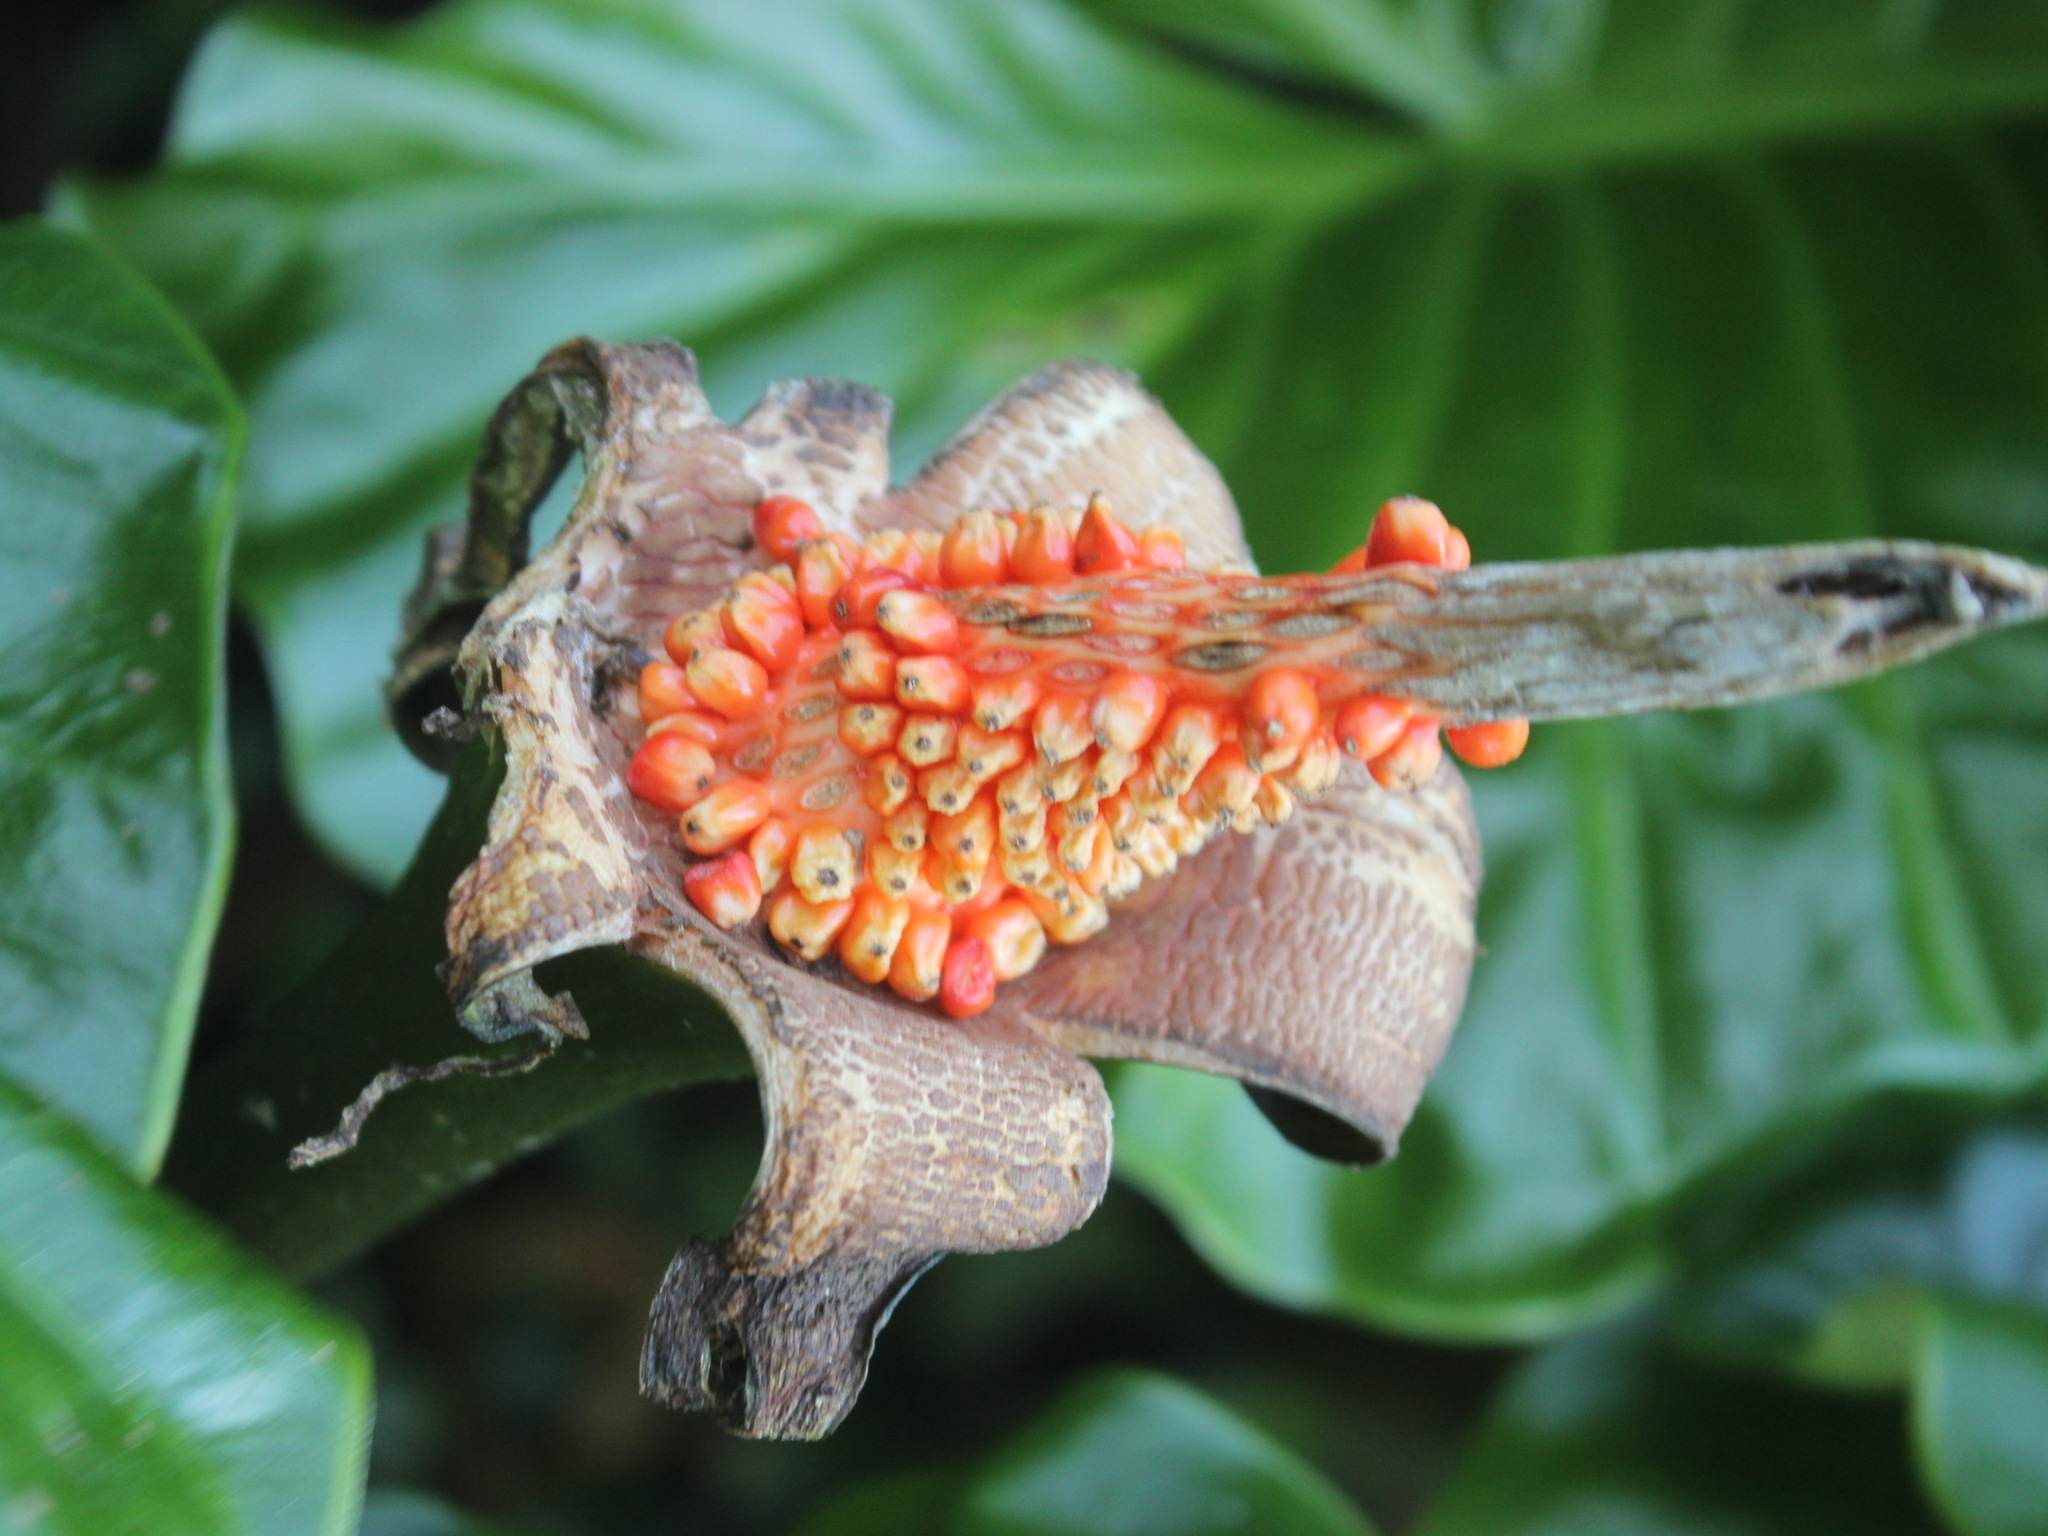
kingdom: Plantae
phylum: Tracheophyta
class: Liliopsida
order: Alismatales
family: Araceae
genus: Alocasia
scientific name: Alocasia brisbanensis
